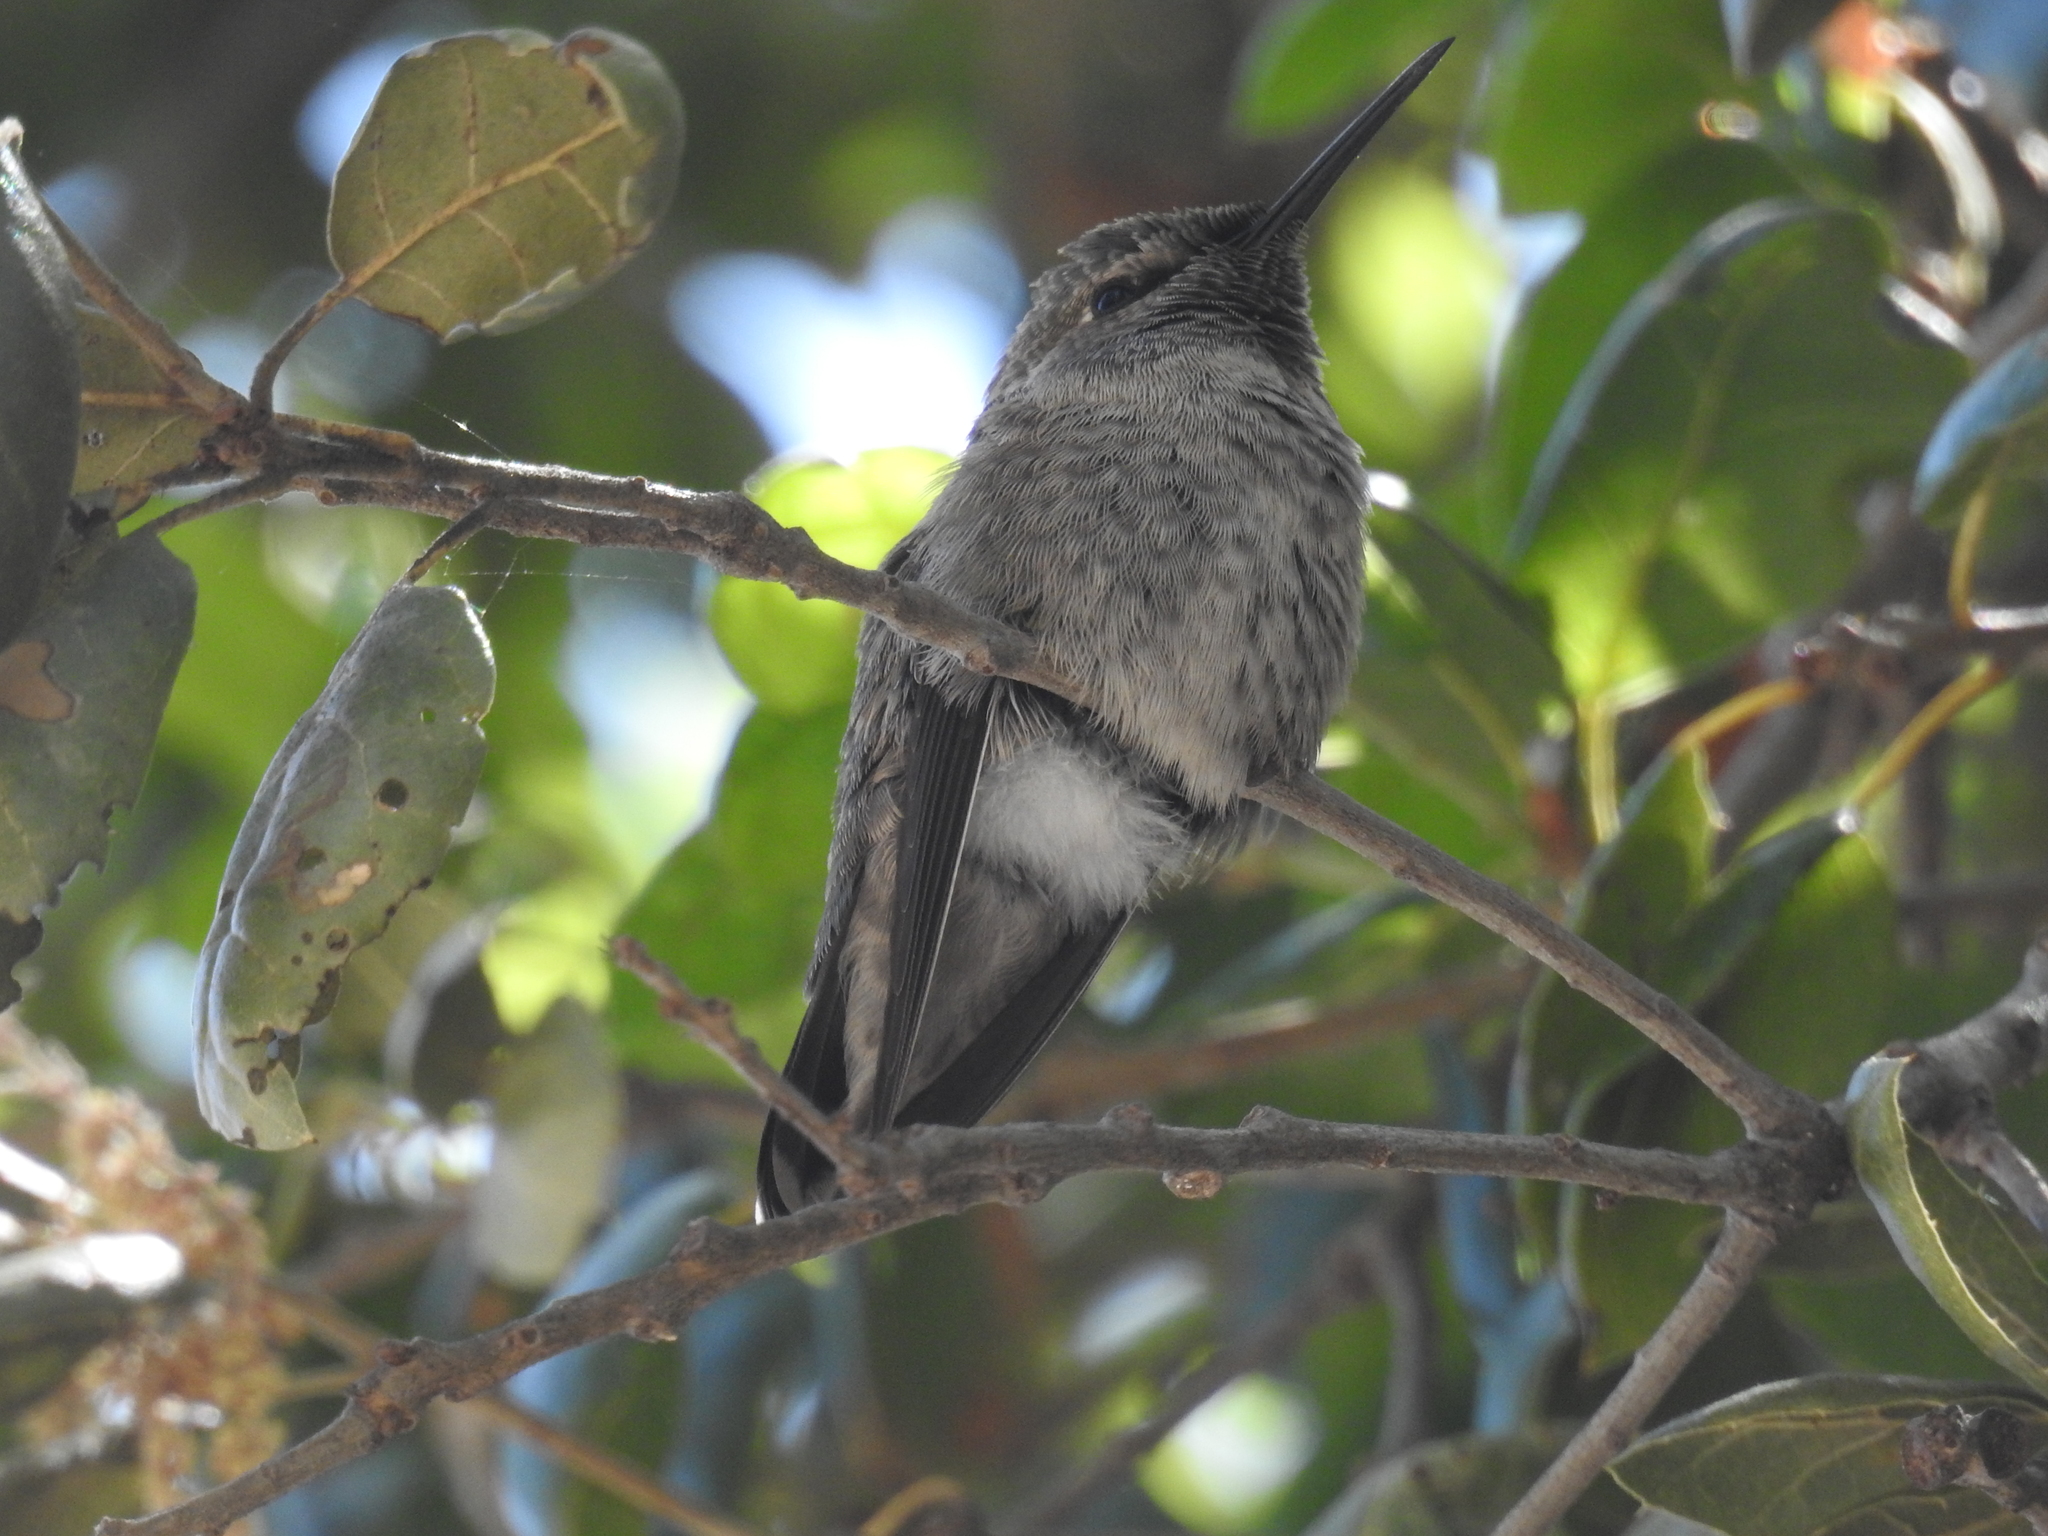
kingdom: Animalia
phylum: Chordata
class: Aves
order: Apodiformes
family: Trochilidae
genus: Calypte
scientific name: Calypte anna
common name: Anna's hummingbird
